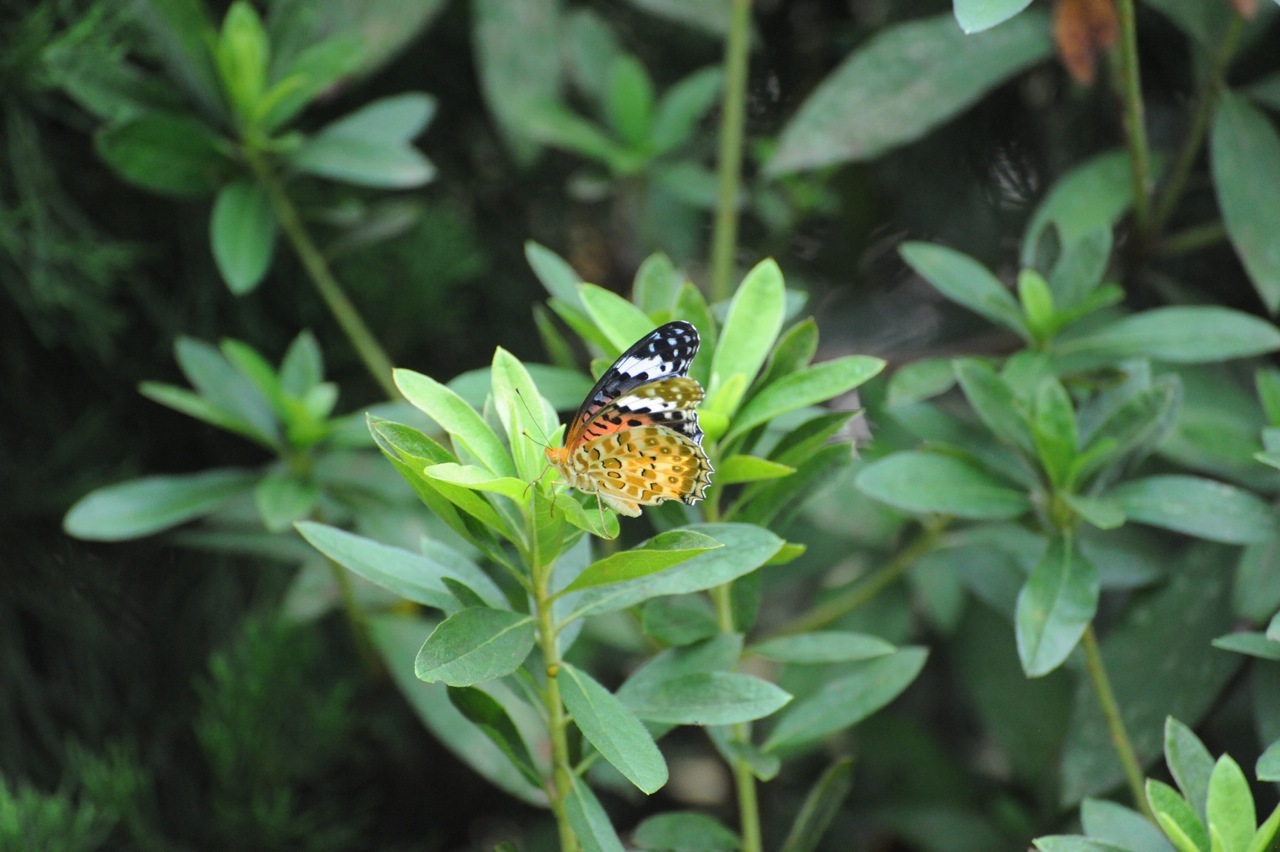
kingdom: Animalia
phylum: Arthropoda
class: Insecta
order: Lepidoptera
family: Nymphalidae
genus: Argynnis
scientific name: Argynnis hyperbius
